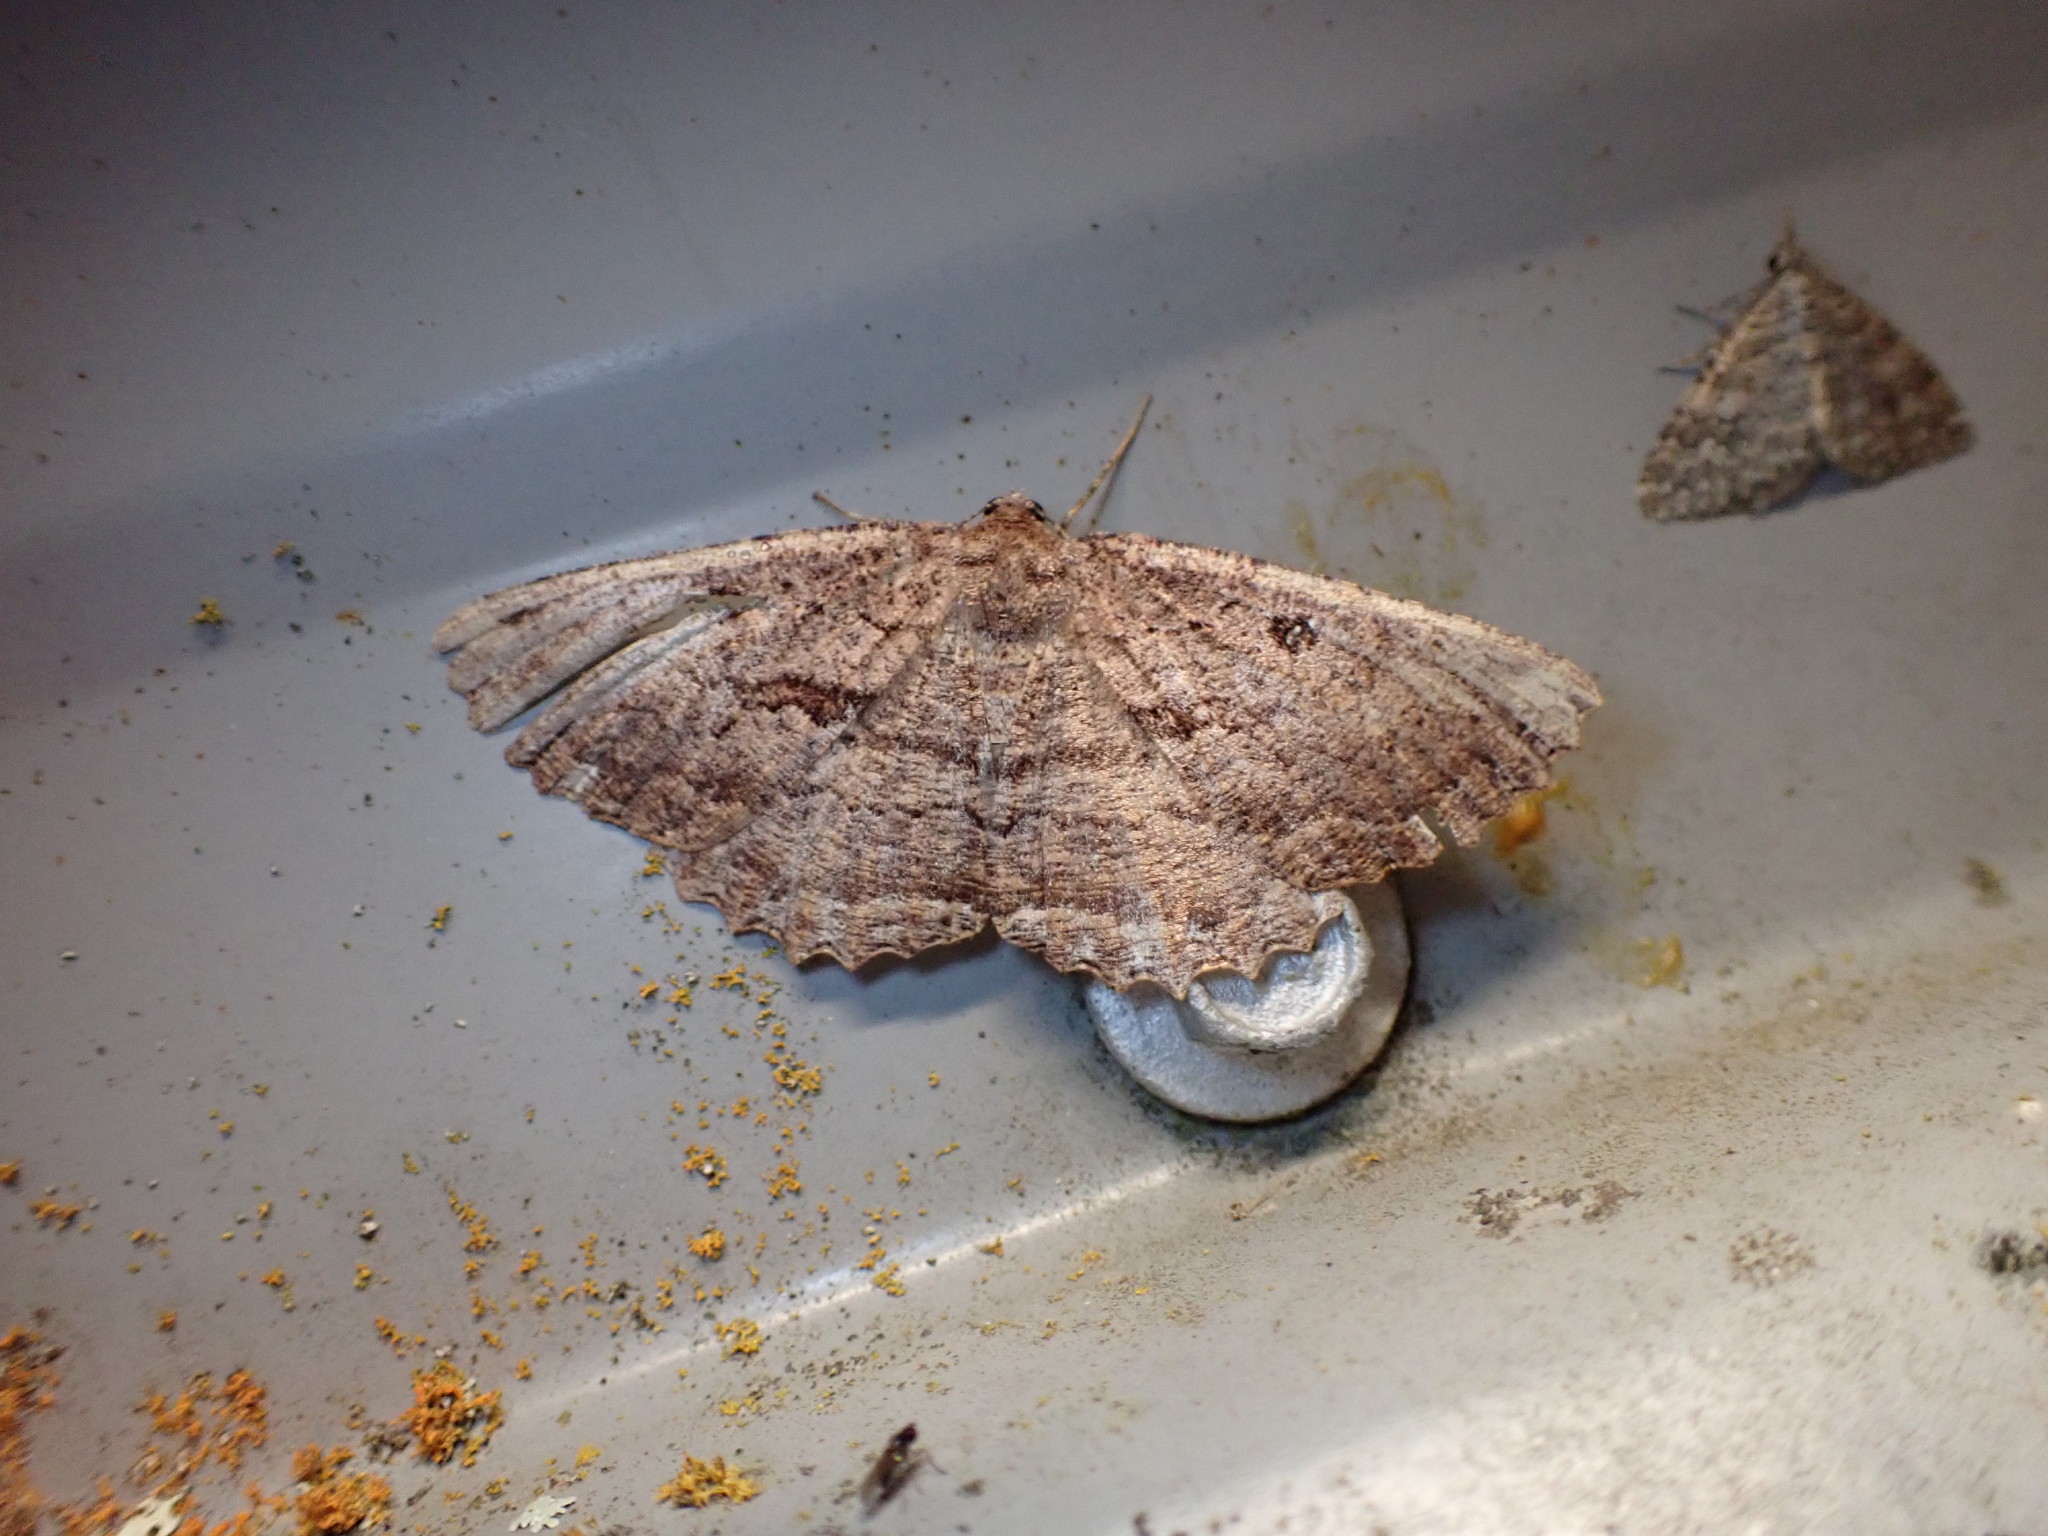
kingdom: Animalia
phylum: Arthropoda
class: Insecta
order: Lepidoptera
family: Geometridae
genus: Gellonia
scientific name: Gellonia dejectaria
